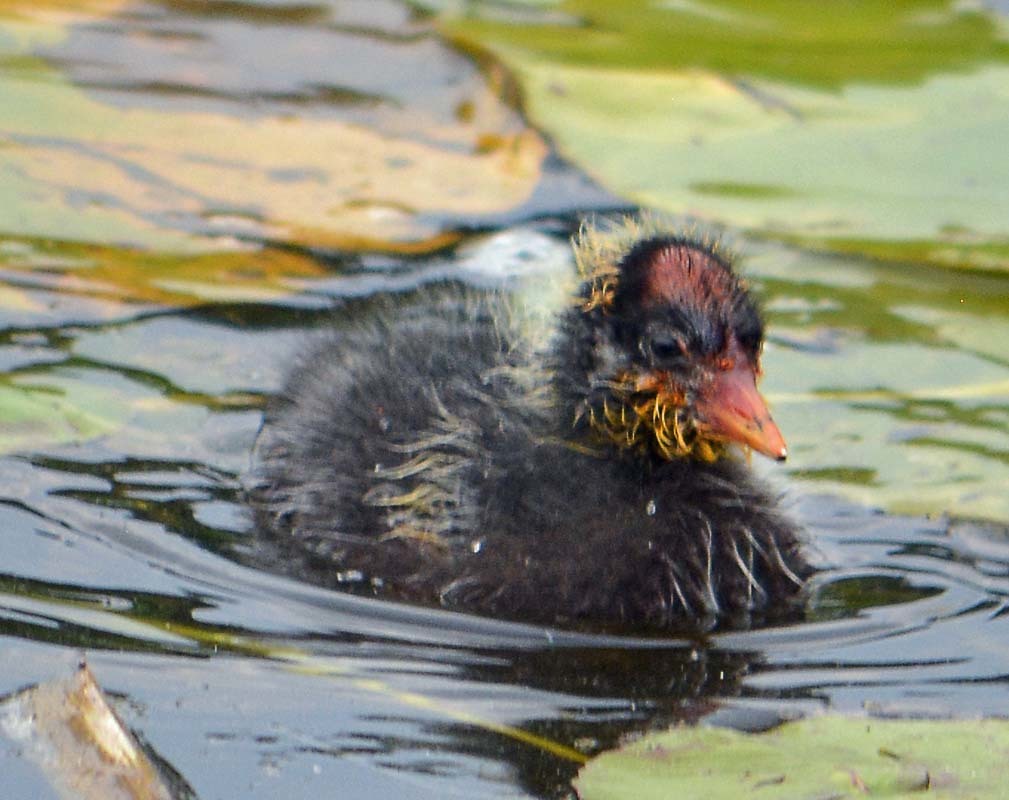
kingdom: Animalia
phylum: Chordata
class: Aves
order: Gruiformes
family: Rallidae
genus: Fulica
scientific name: Fulica americana
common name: American coot
